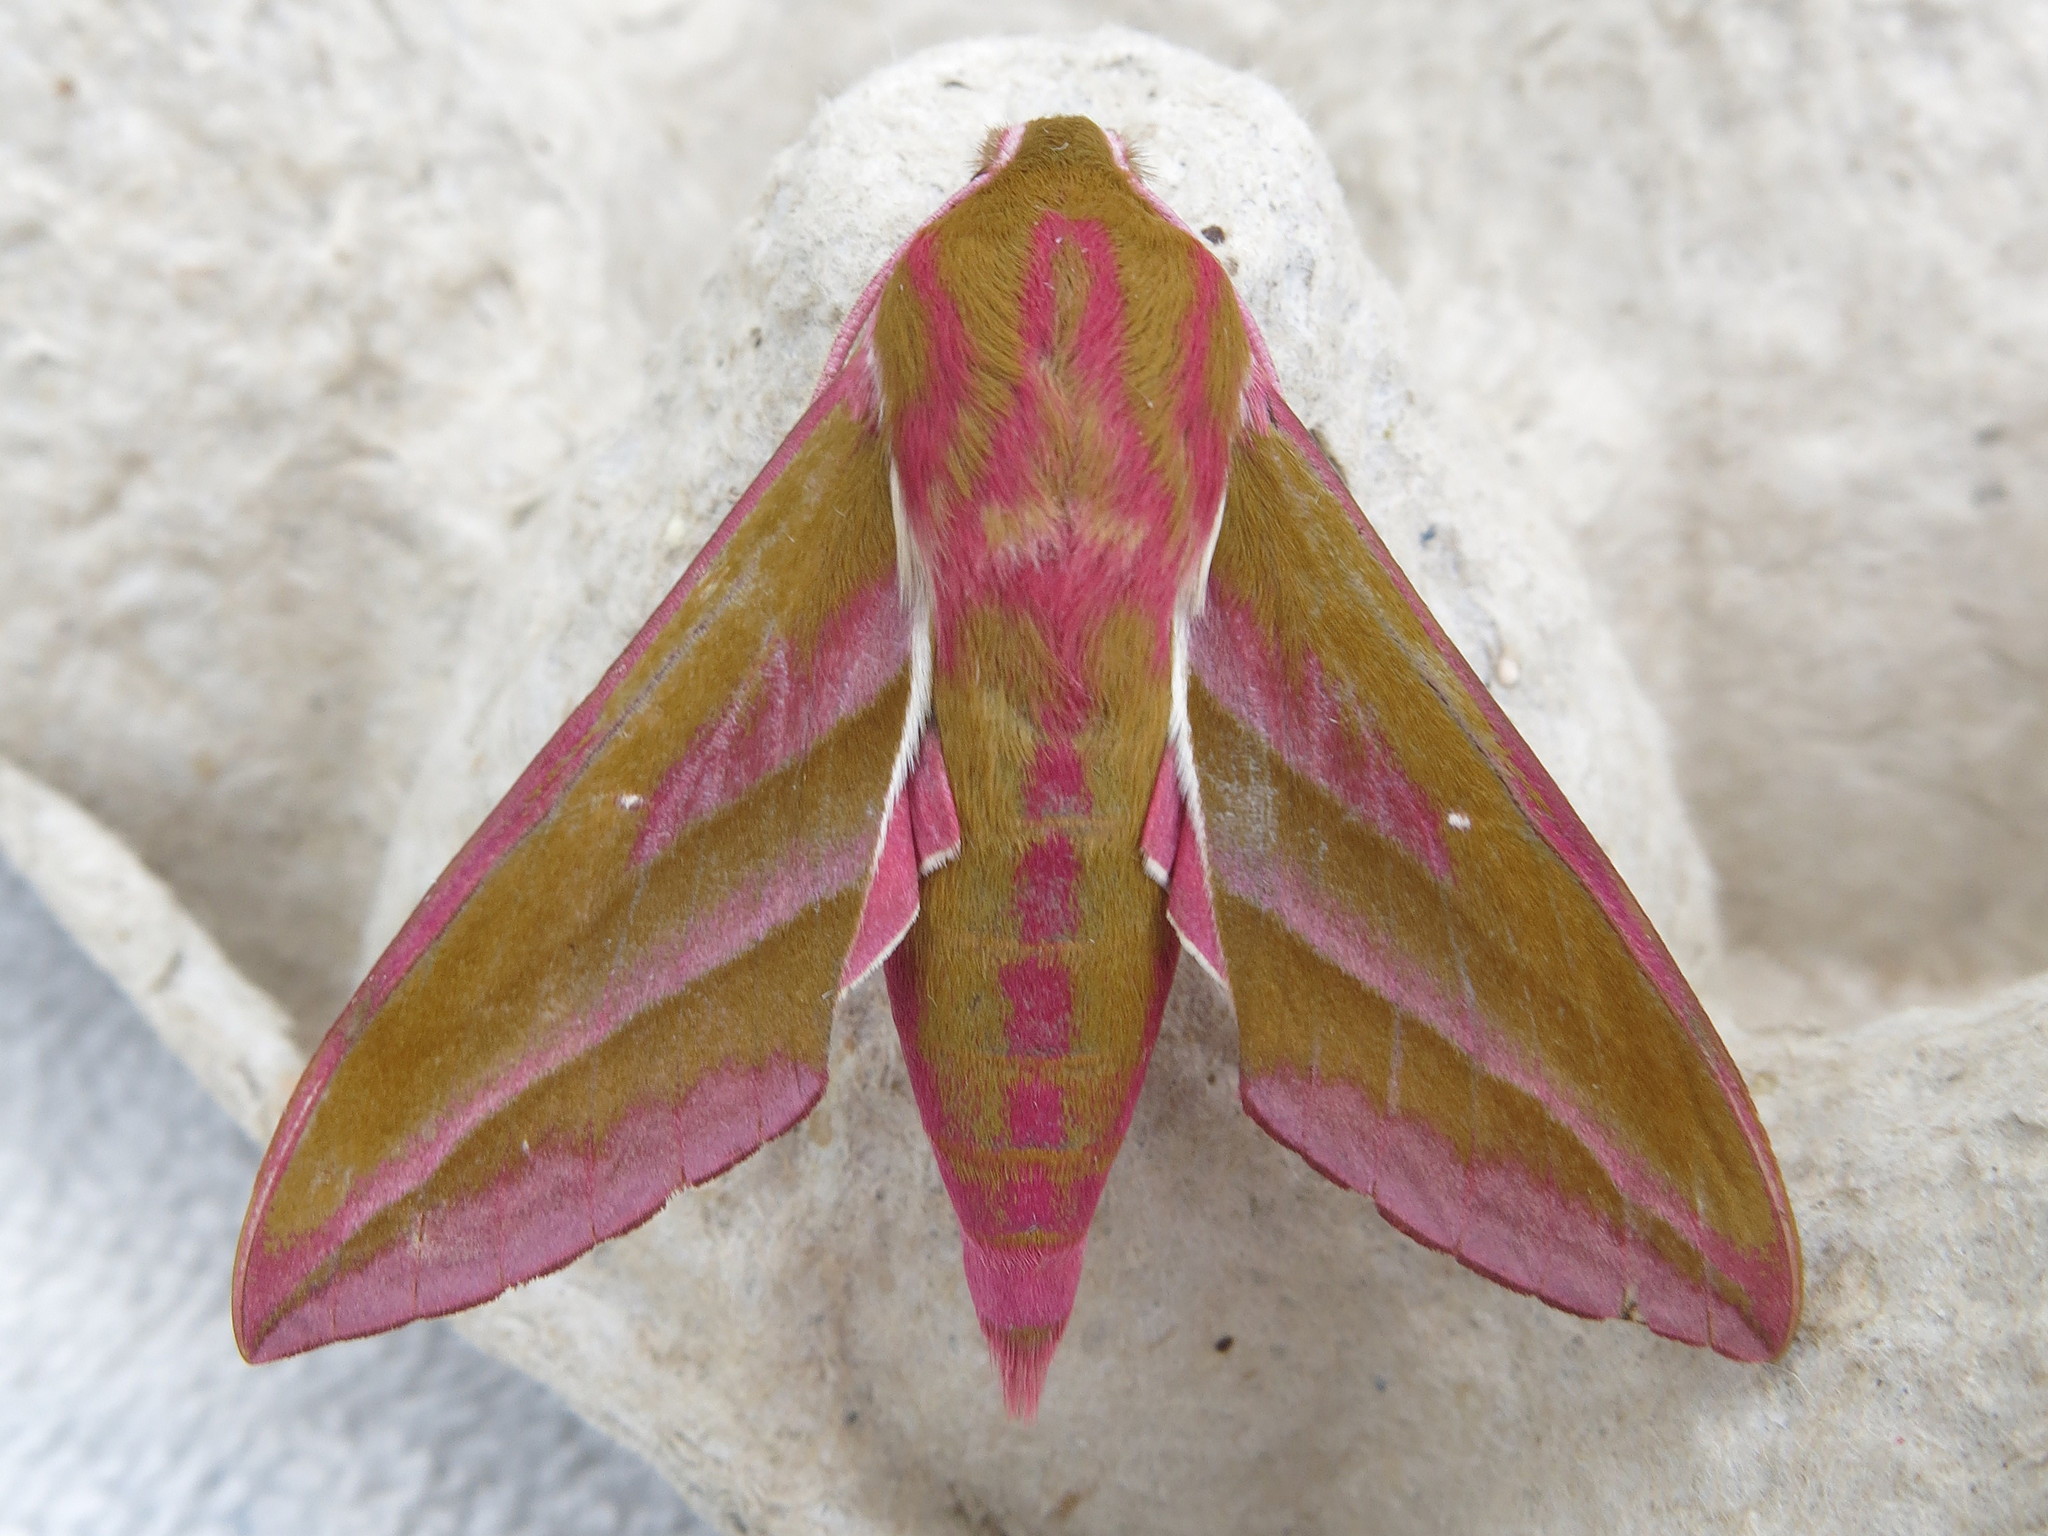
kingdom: Animalia
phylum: Arthropoda
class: Insecta
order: Lepidoptera
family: Sphingidae
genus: Deilephila
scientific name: Deilephila elpenor
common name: Elephant hawk-moth
